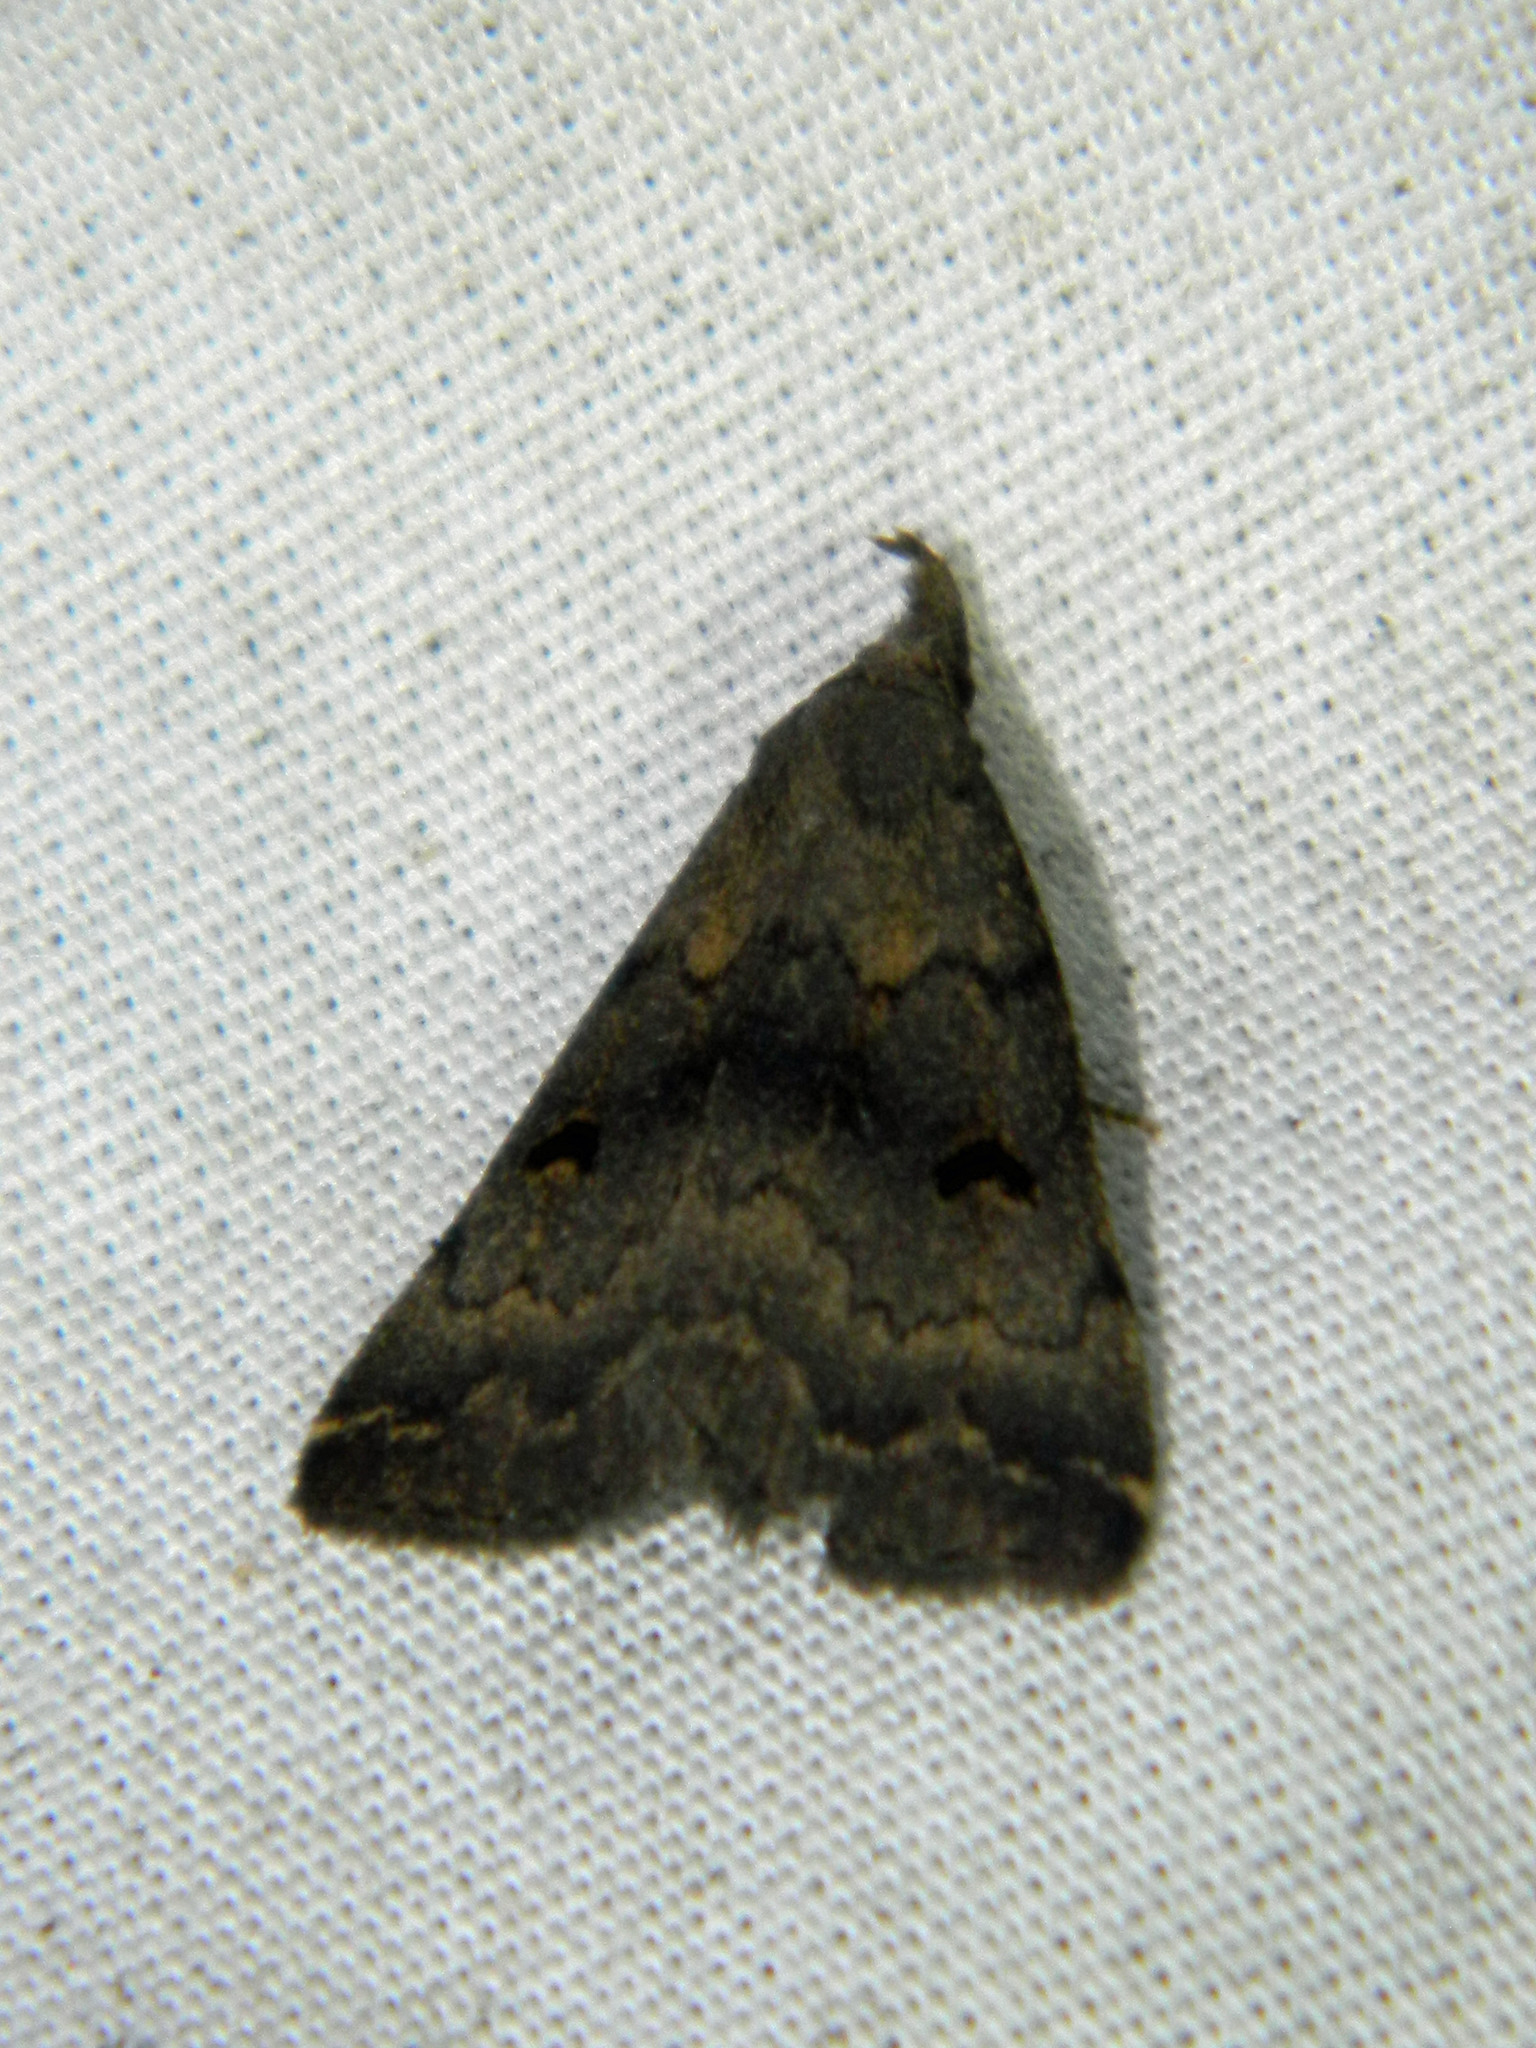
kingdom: Animalia
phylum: Arthropoda
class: Insecta
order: Lepidoptera
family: Erebidae
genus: Phalaenostola
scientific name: Phalaenostola hanhami
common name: Hanham's owlet
